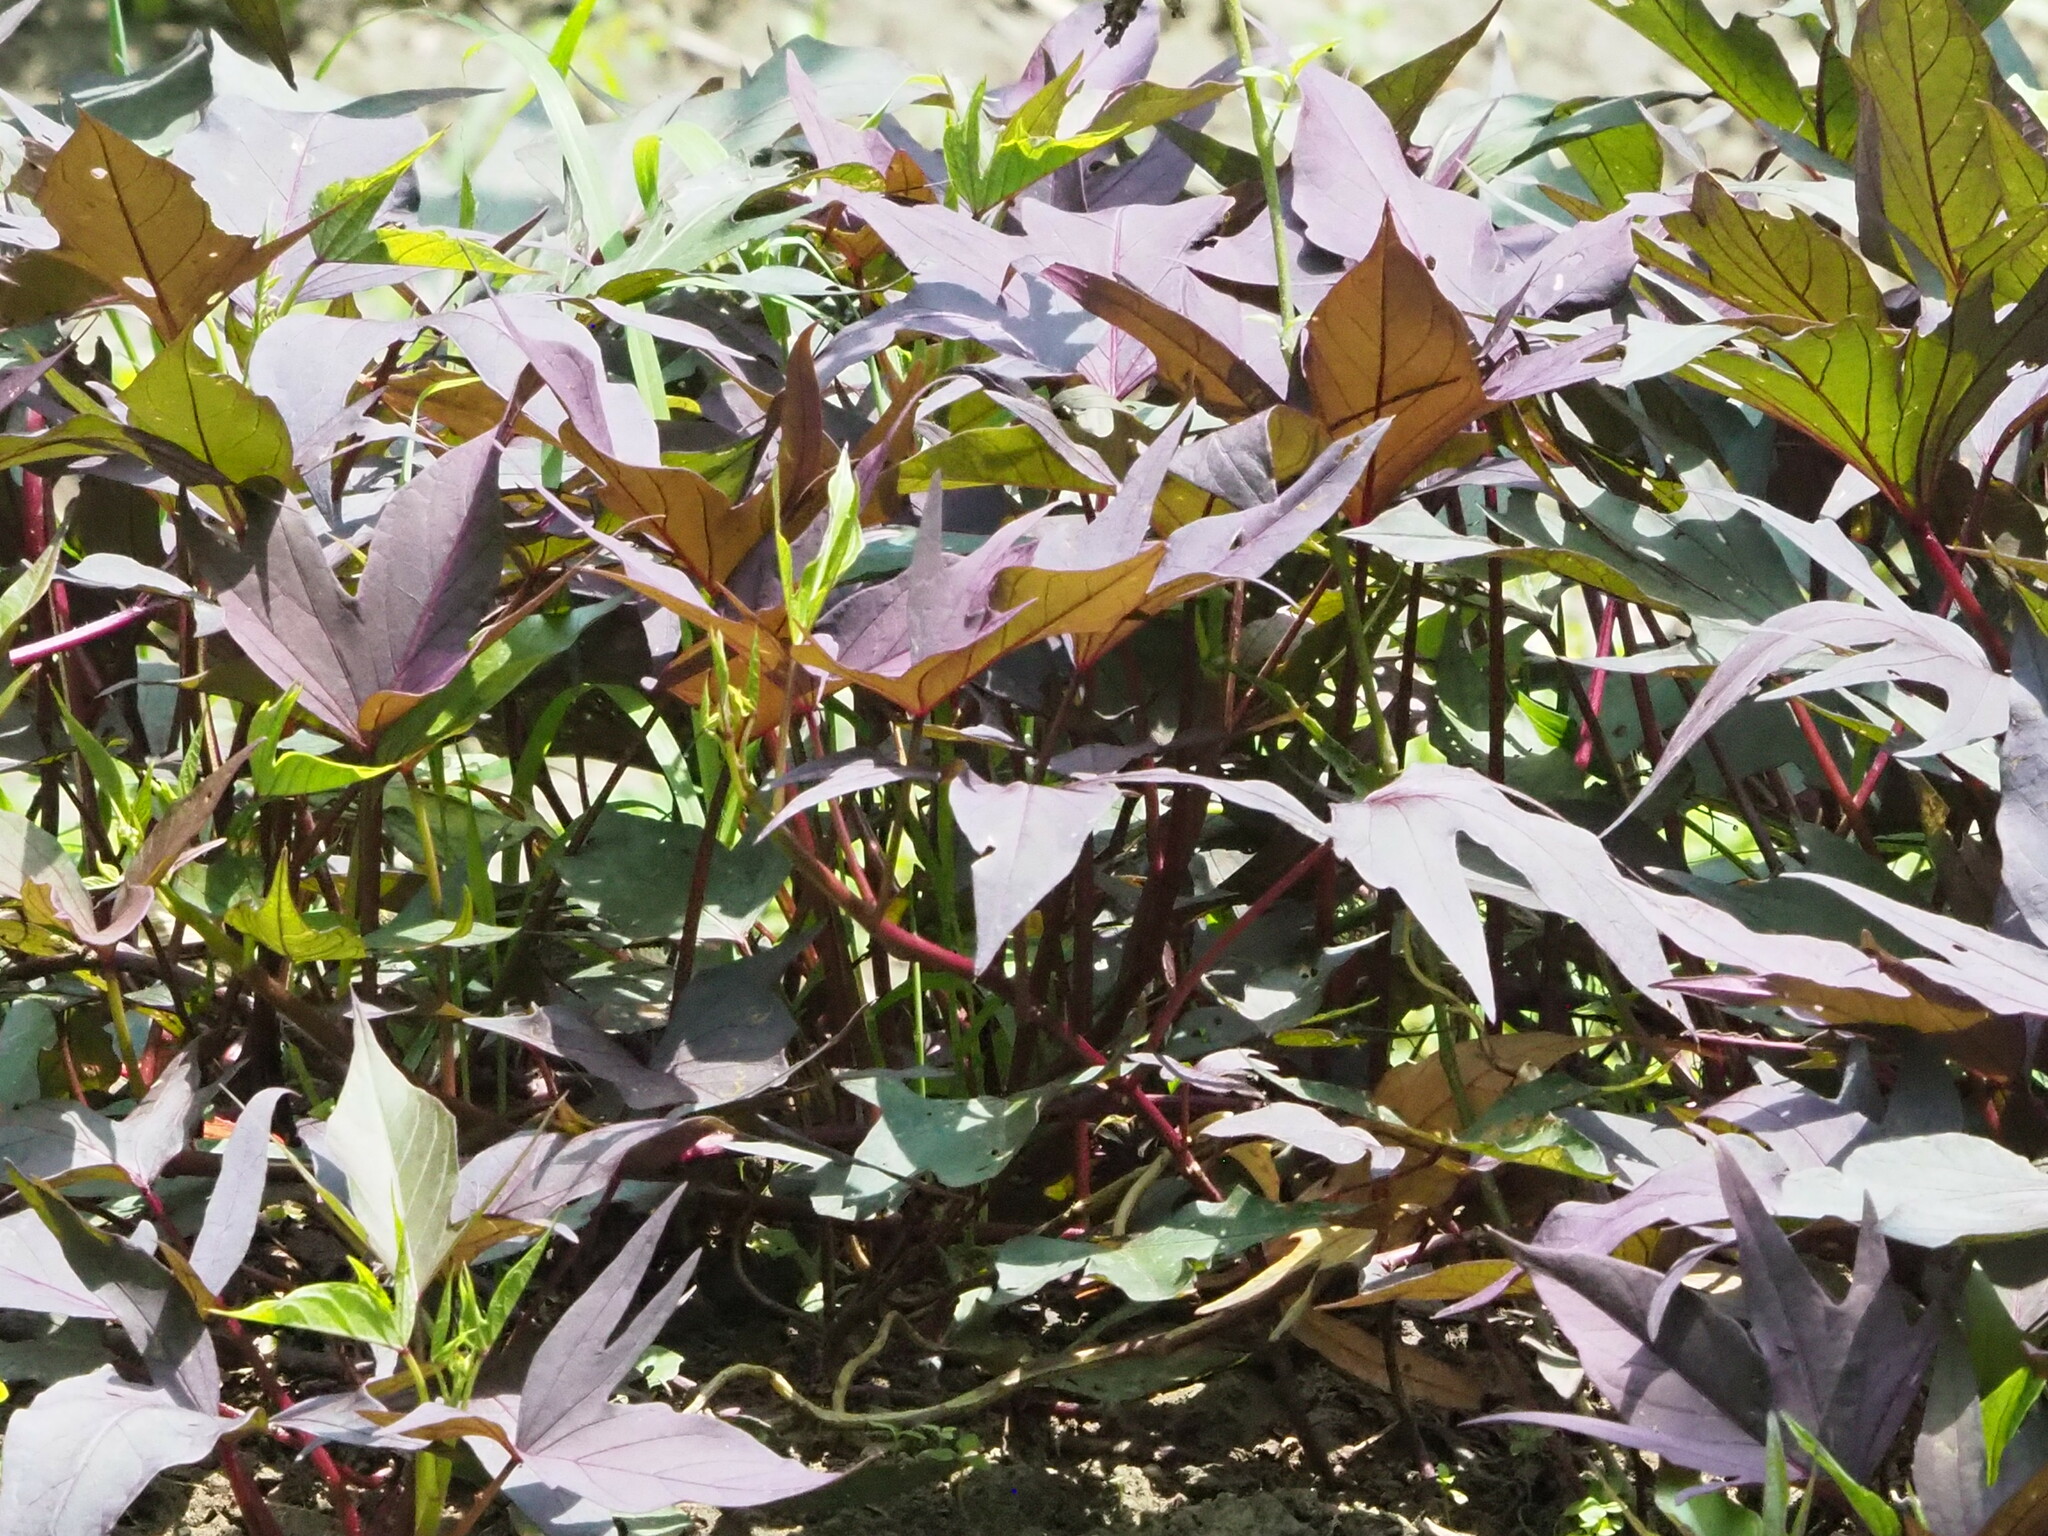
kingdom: Plantae
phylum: Tracheophyta
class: Magnoliopsida
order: Solanales
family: Convolvulaceae
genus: Ipomoea
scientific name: Ipomoea batatas
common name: Sweet-potato
